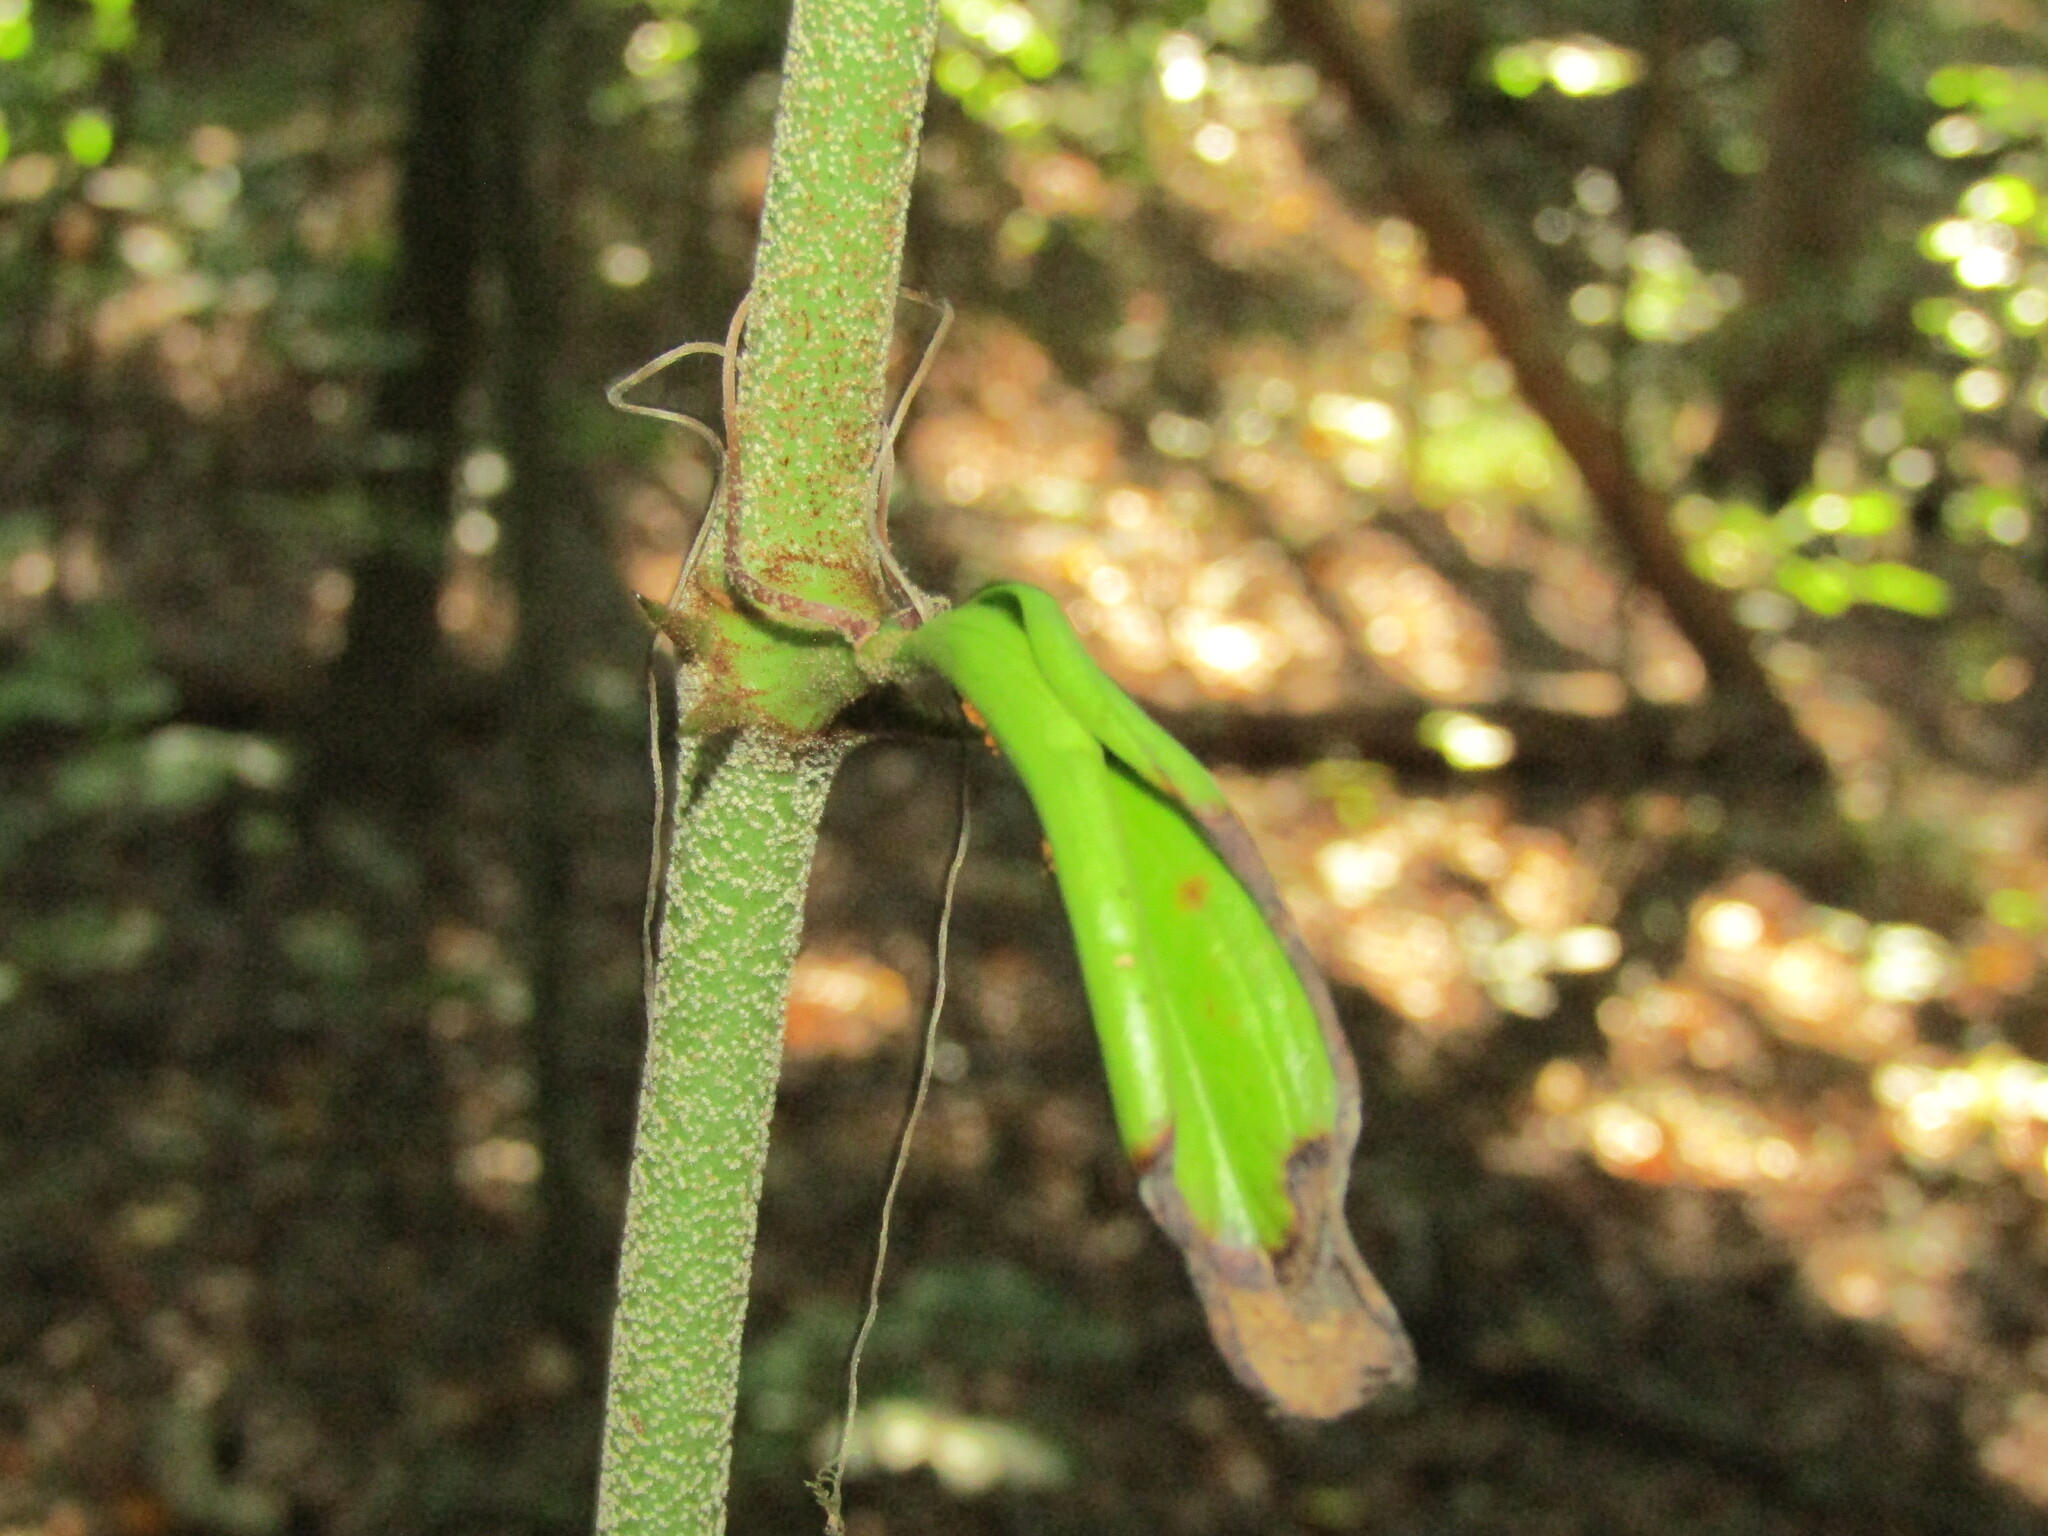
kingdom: Plantae
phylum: Tracheophyta
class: Liliopsida
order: Liliales
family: Smilacaceae
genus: Smilax
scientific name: Smilax bona-nox
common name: Catbrier
